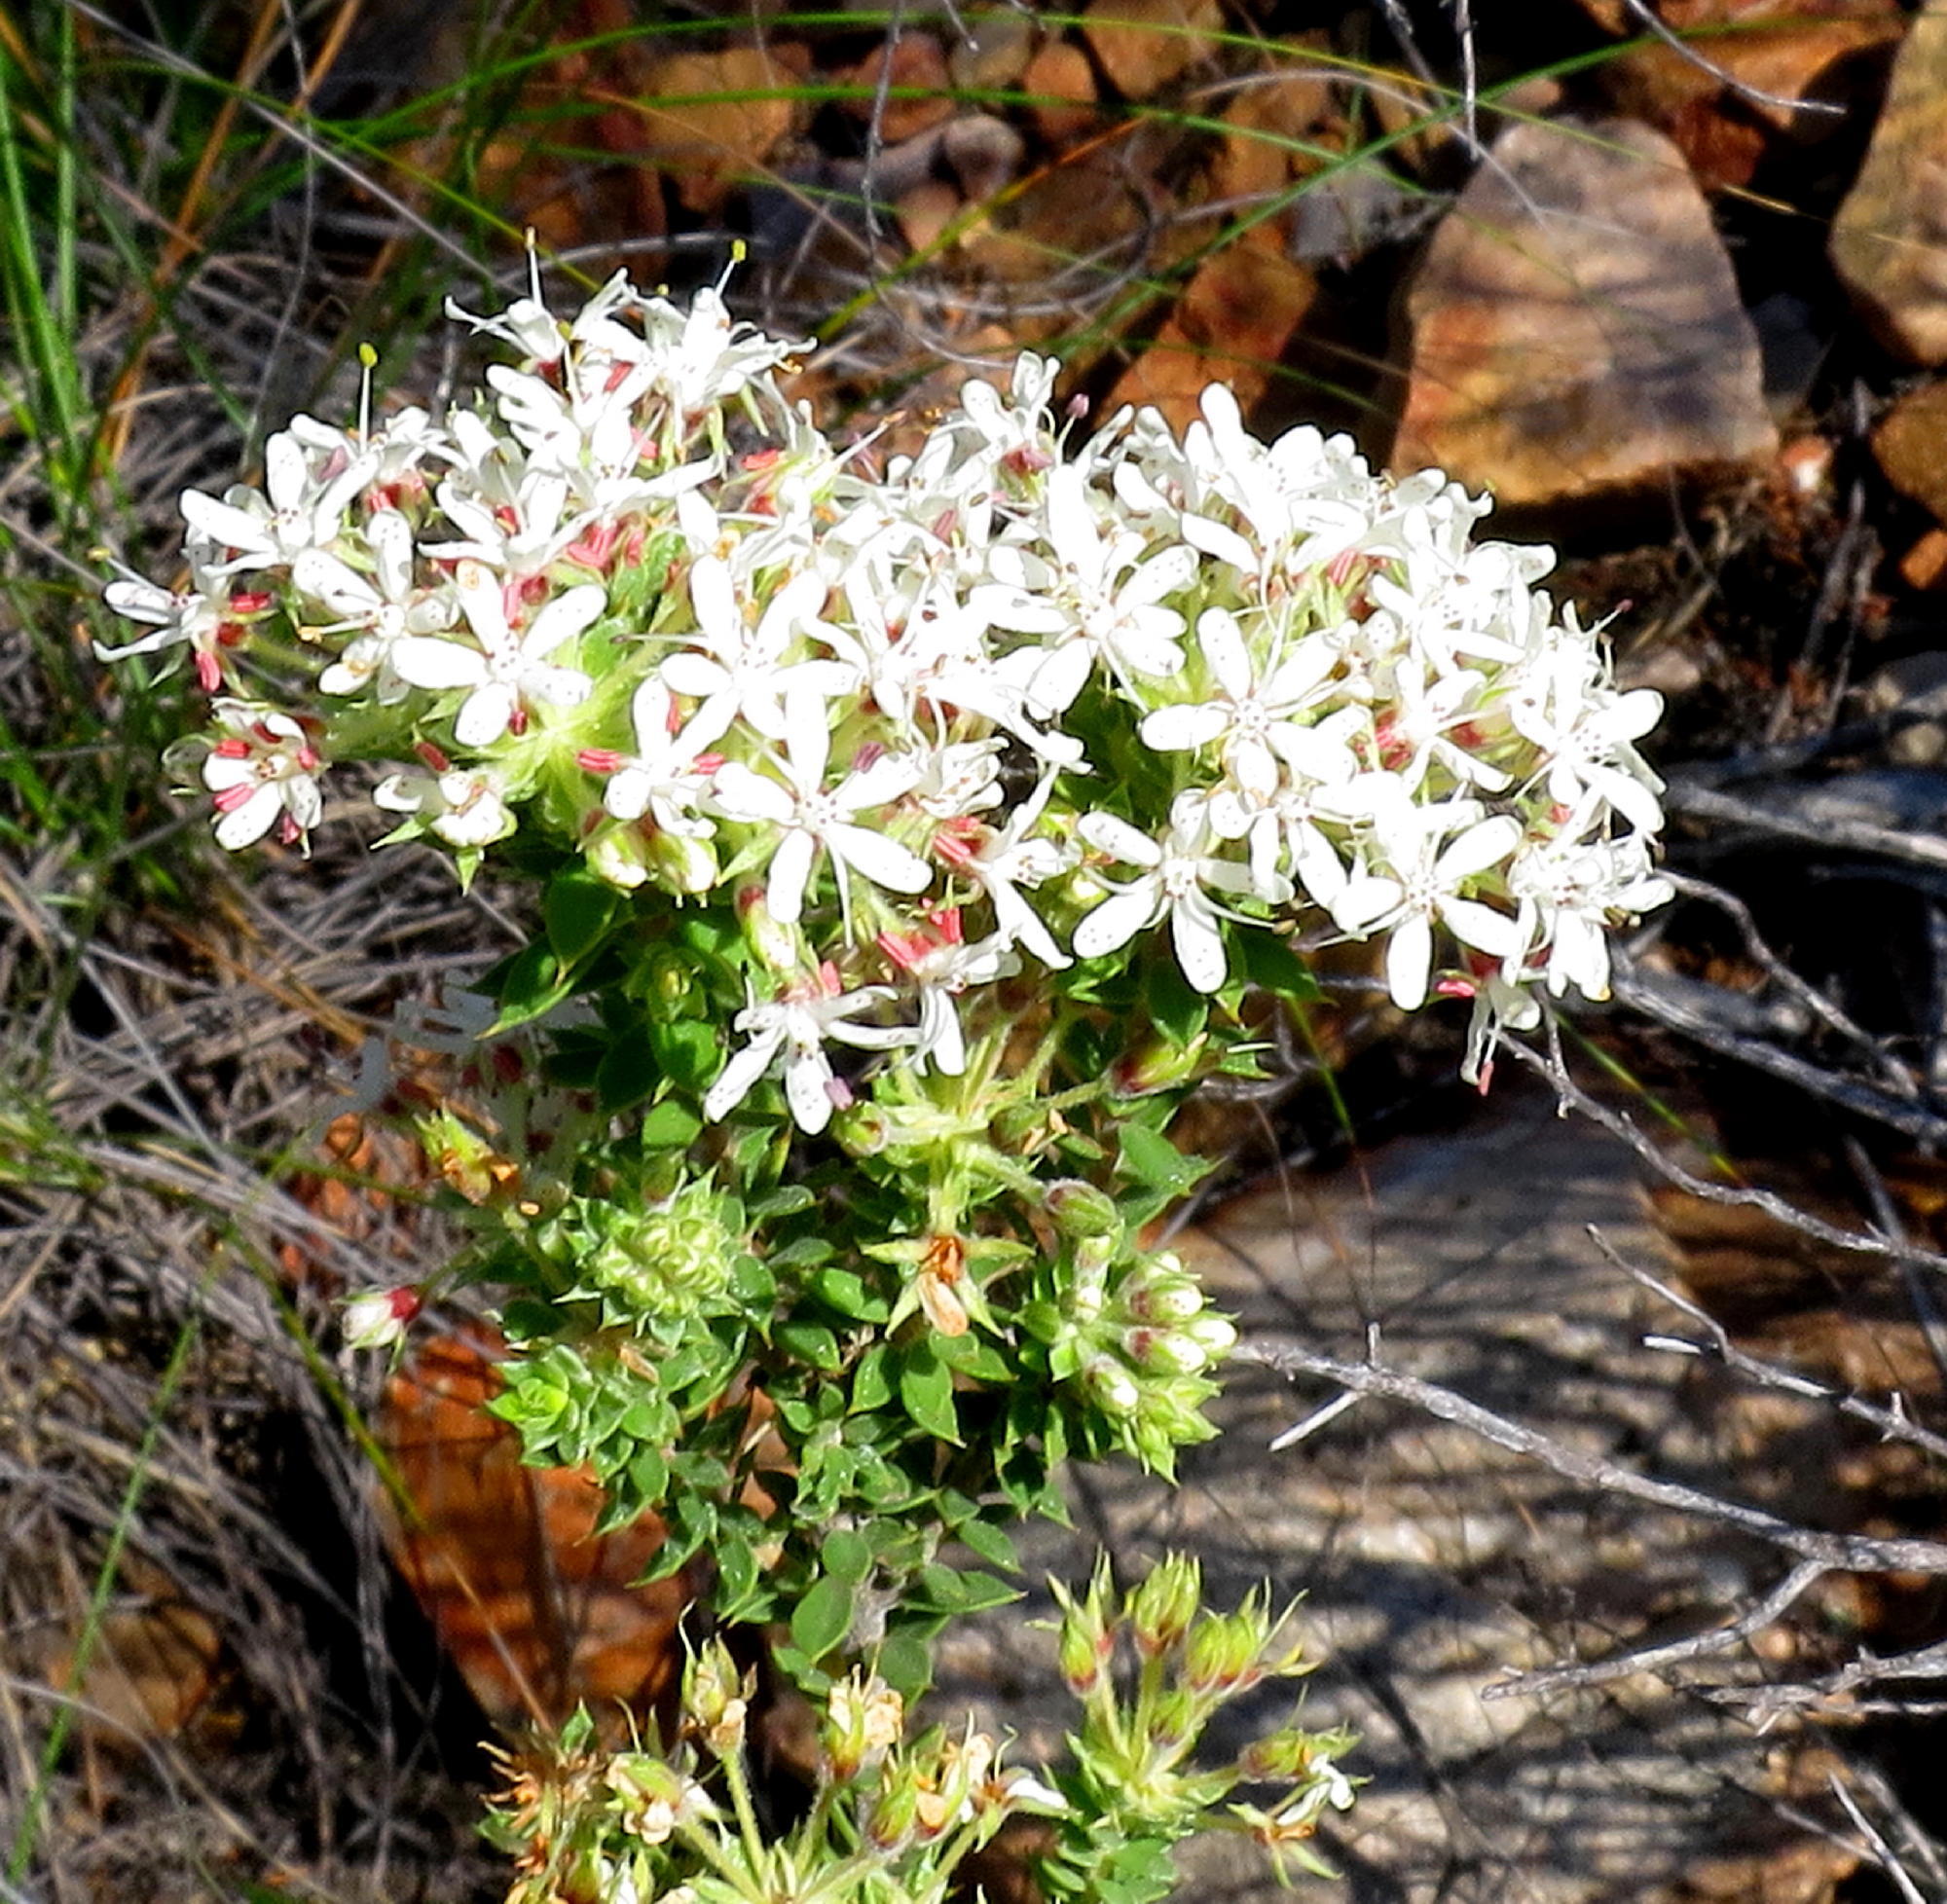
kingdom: Plantae
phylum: Tracheophyta
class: Magnoliopsida
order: Sapindales
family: Rutaceae
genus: Agathosma
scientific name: Agathosma mucronulata
